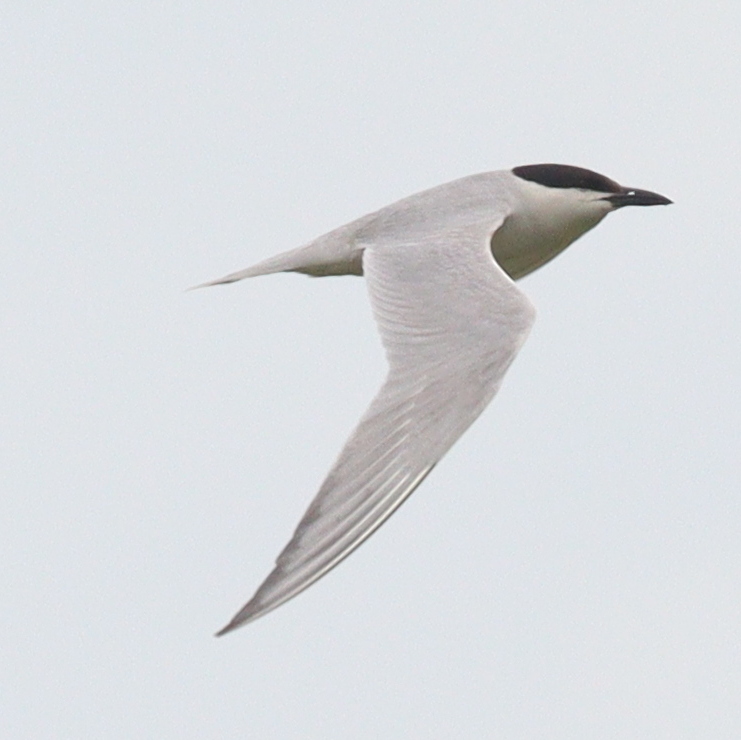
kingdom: Animalia
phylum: Chordata
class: Aves
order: Charadriiformes
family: Laridae
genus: Gelochelidon
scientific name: Gelochelidon nilotica
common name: Gull-billed tern
